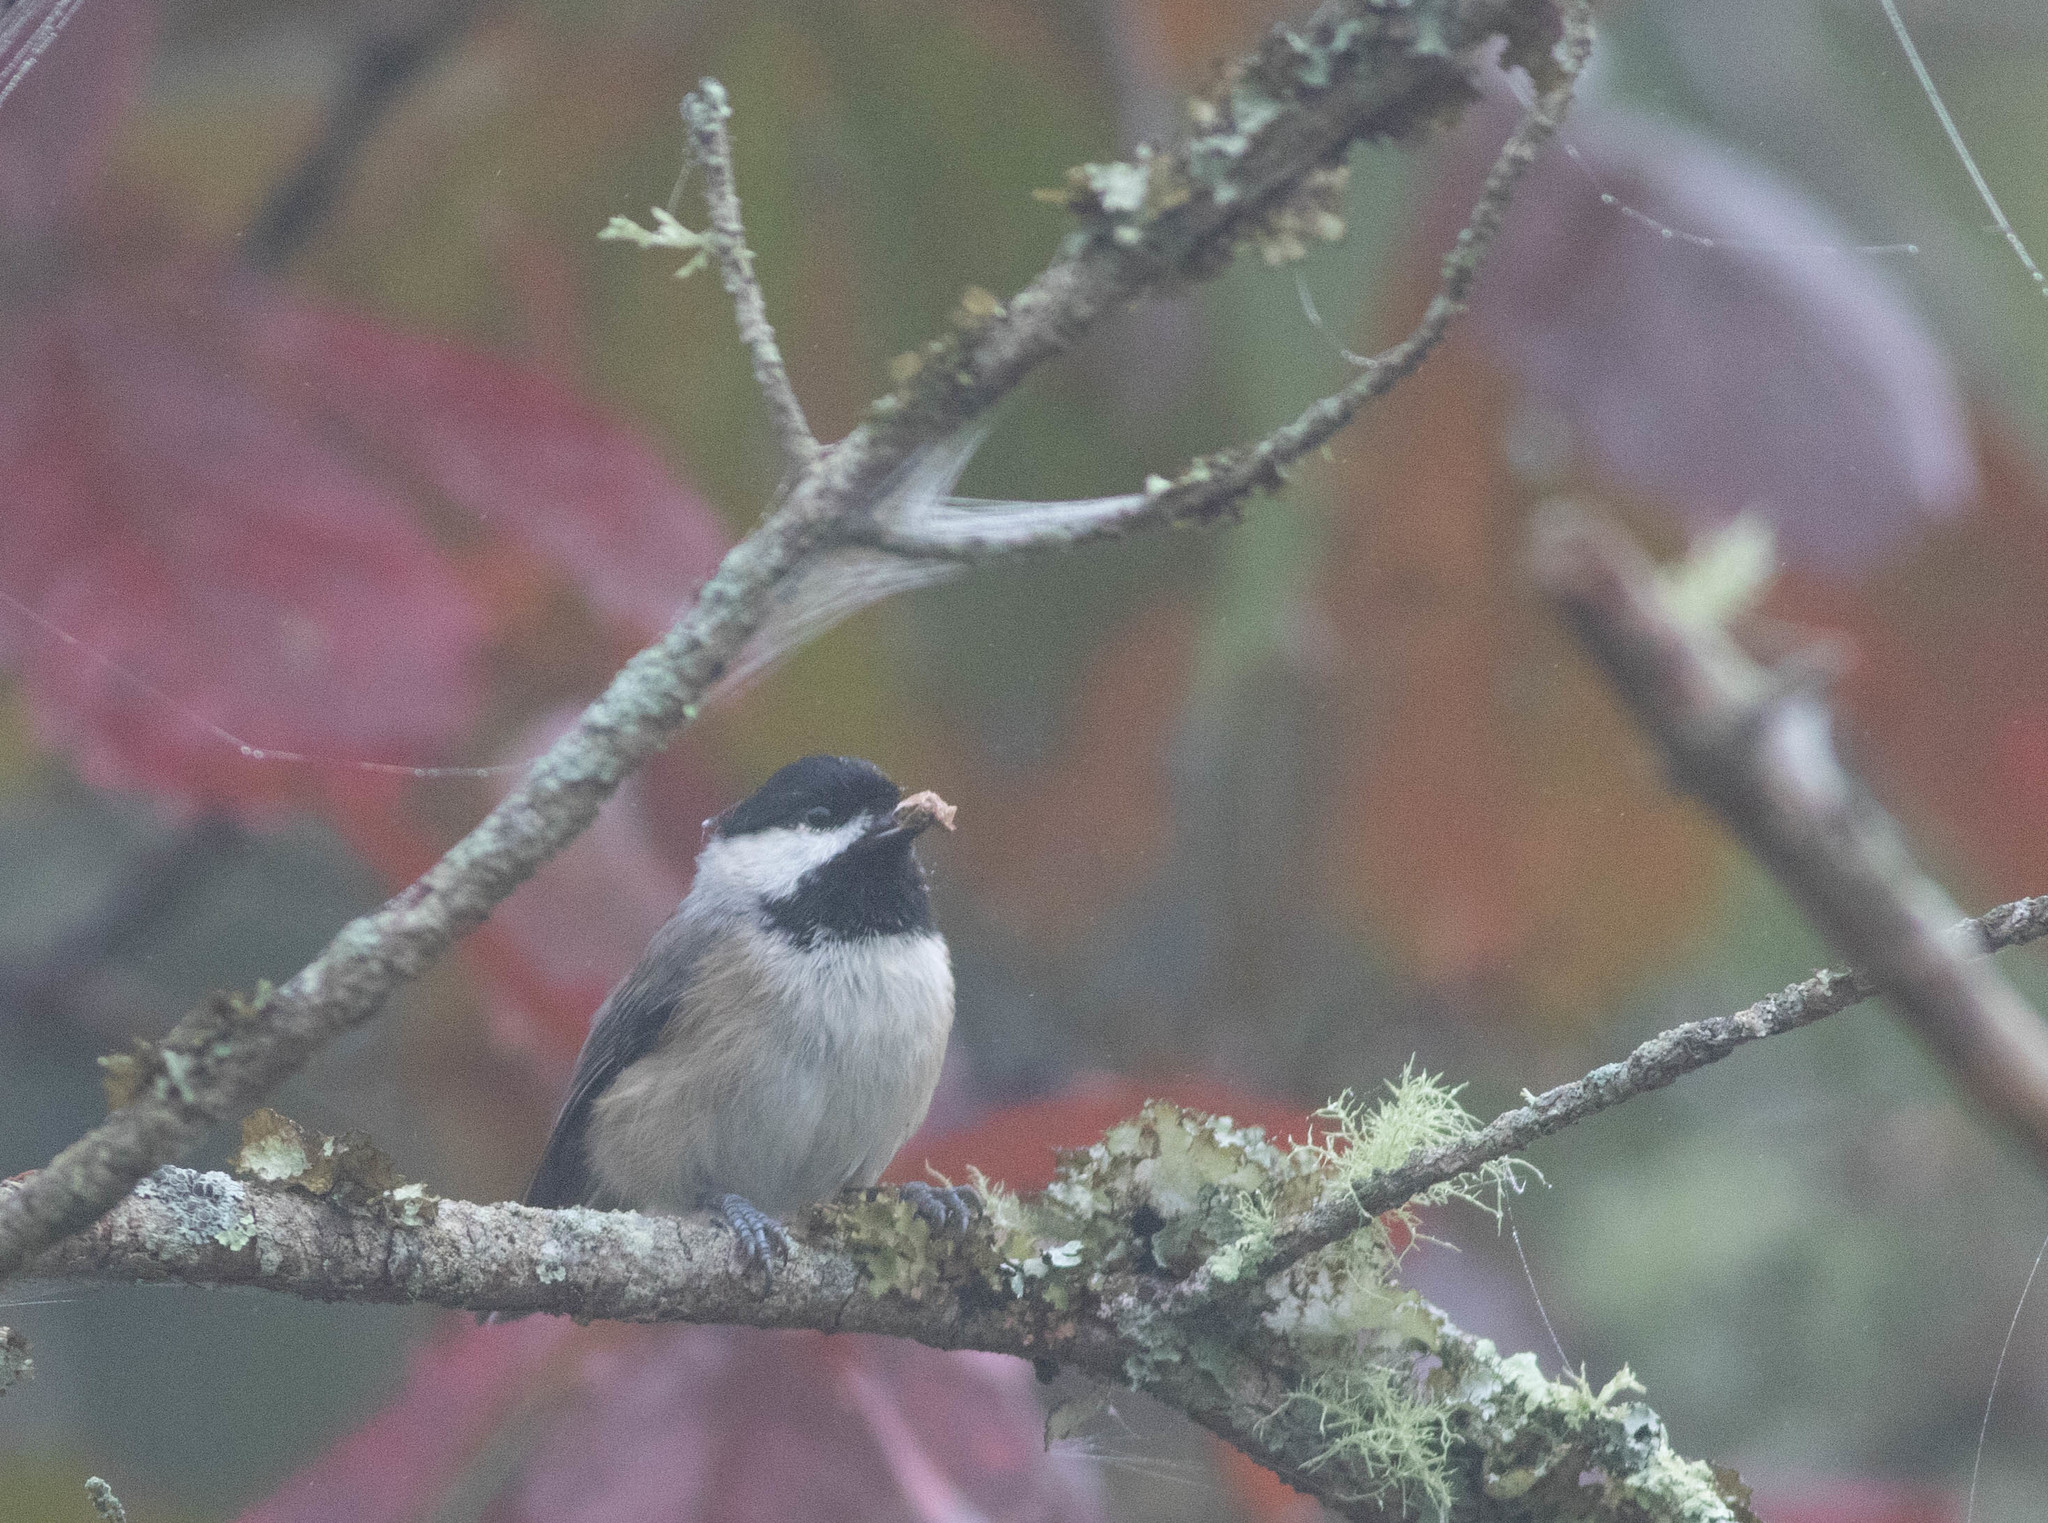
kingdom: Animalia
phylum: Chordata
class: Aves
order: Passeriformes
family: Paridae
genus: Poecile
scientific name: Poecile carolinensis
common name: Carolina chickadee
